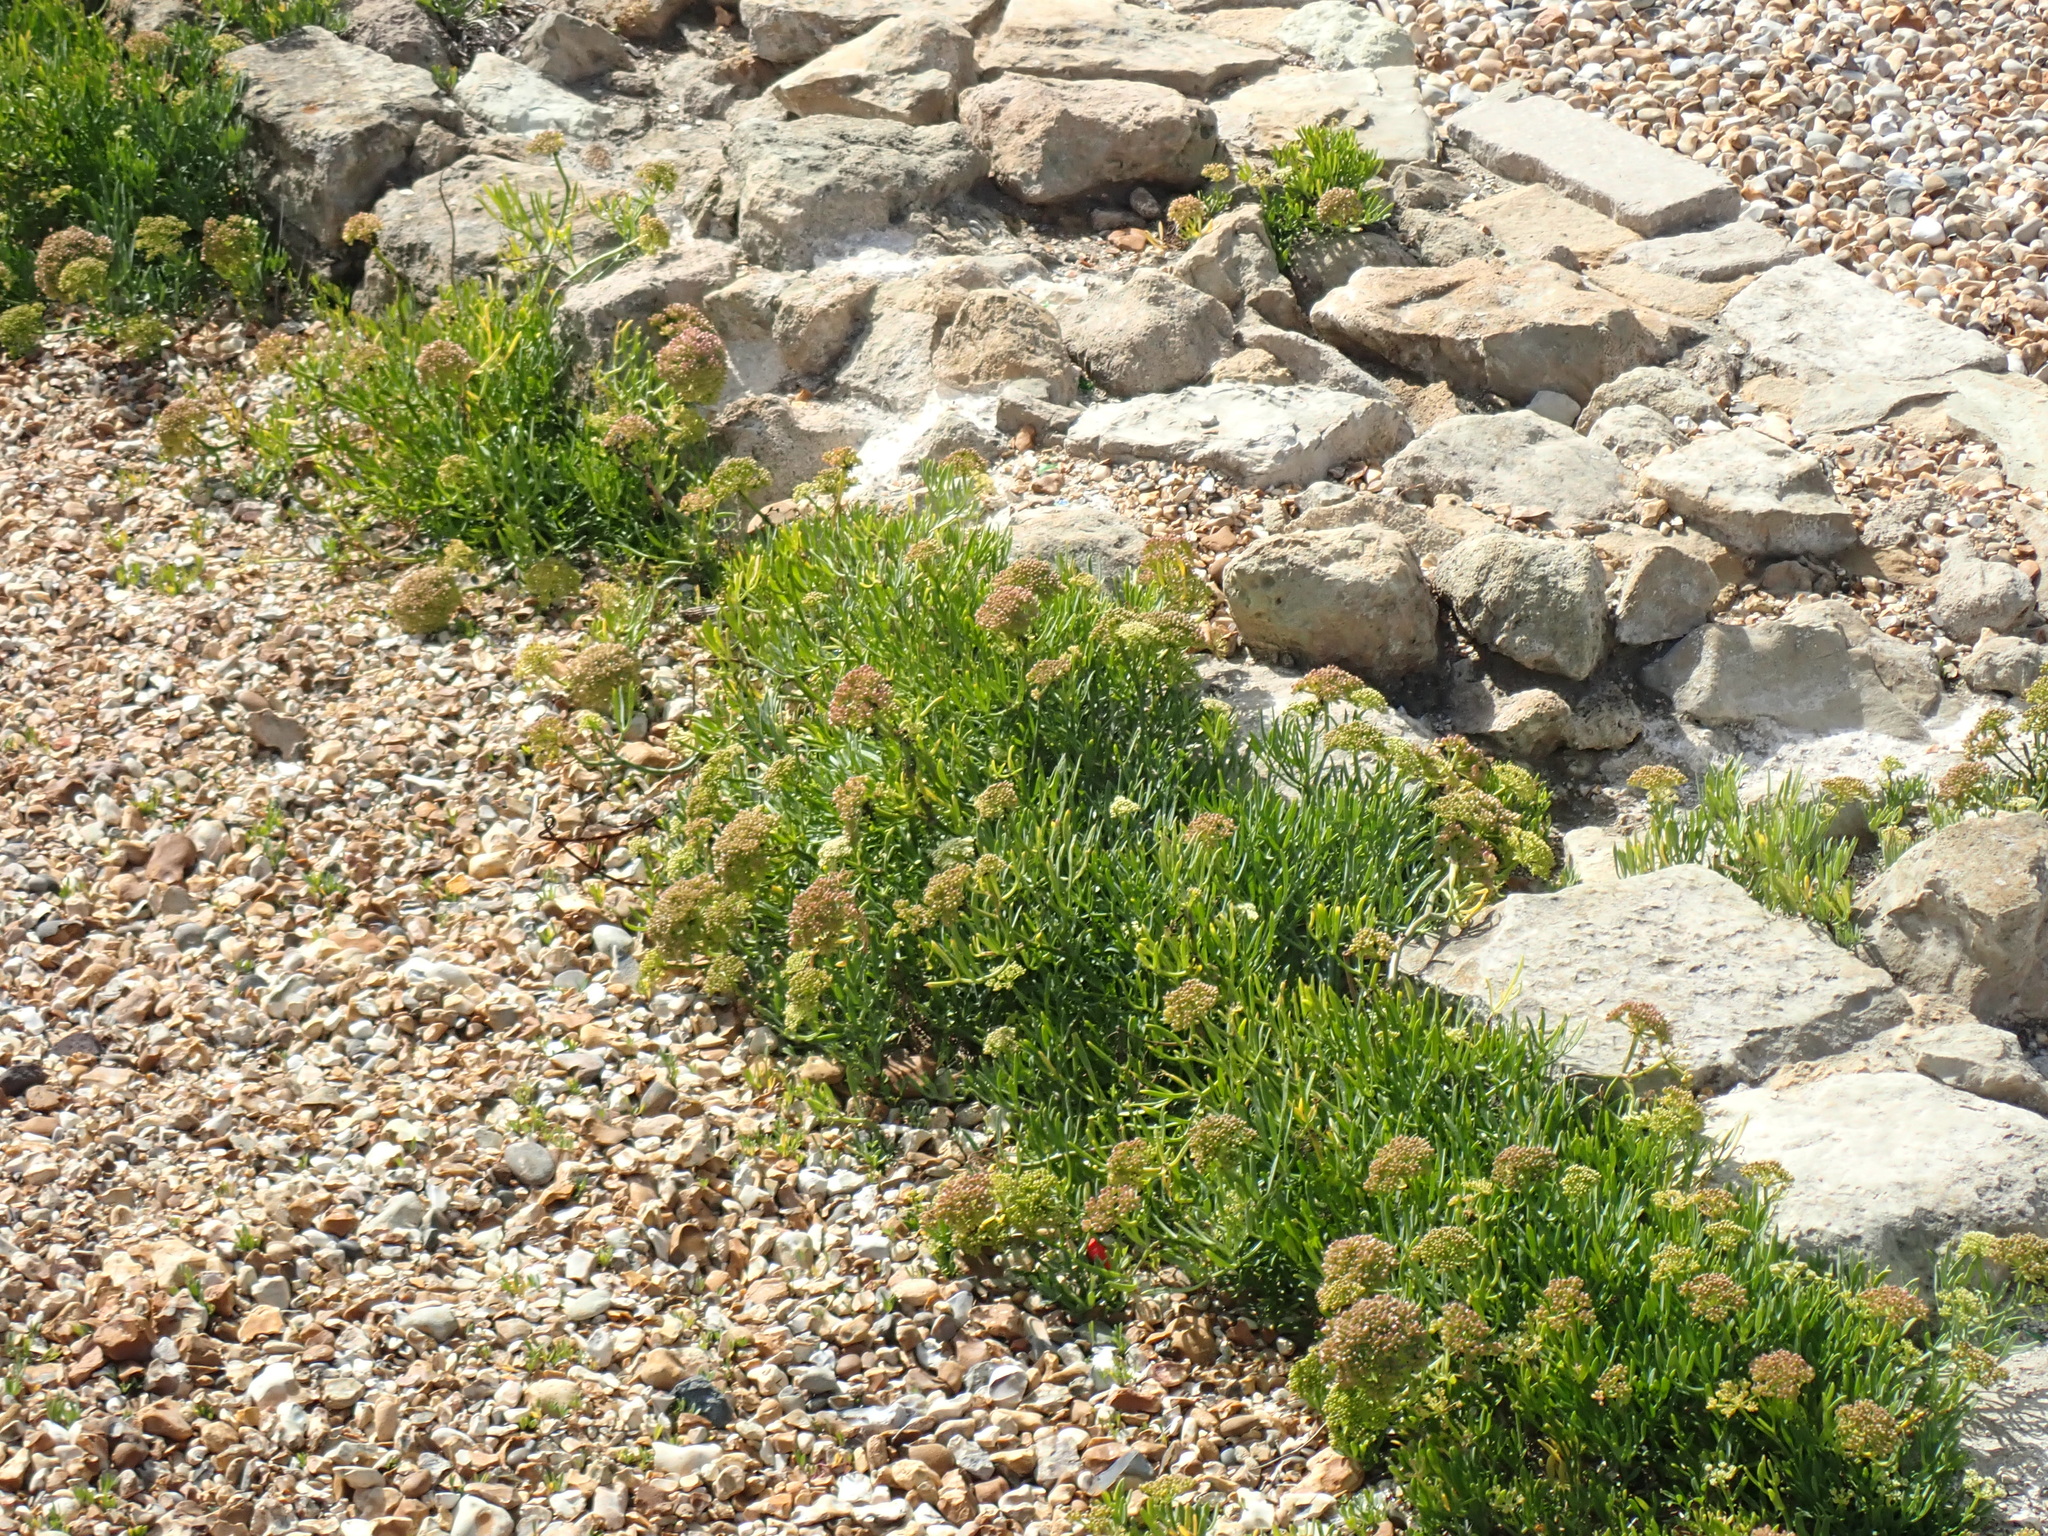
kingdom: Plantae
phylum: Tracheophyta
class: Magnoliopsida
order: Apiales
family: Apiaceae
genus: Crithmum
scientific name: Crithmum maritimum
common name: Rock samphire
